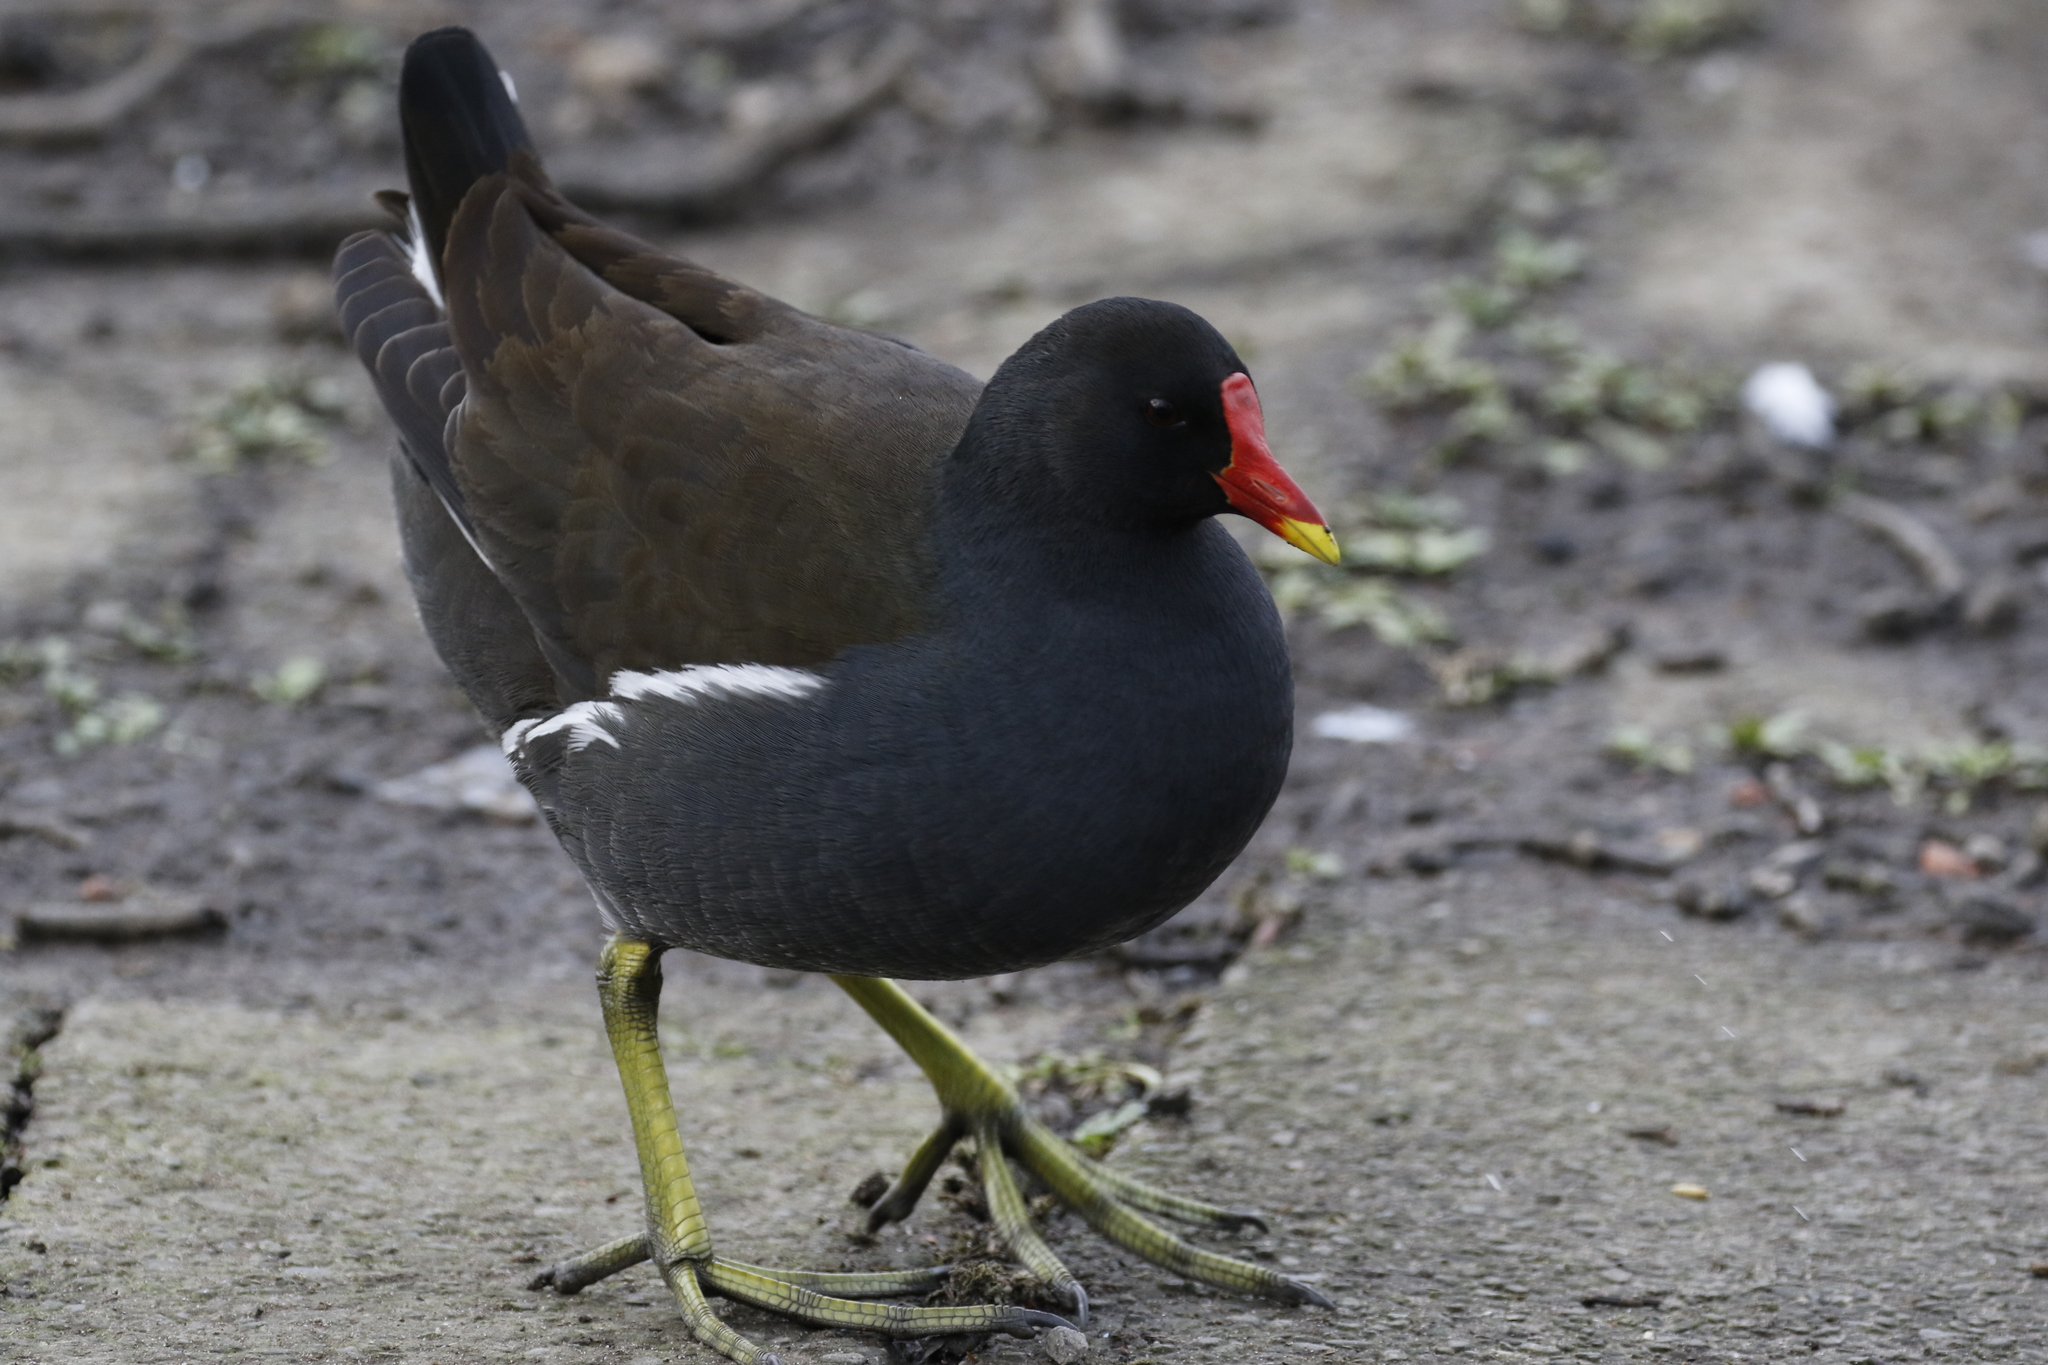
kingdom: Animalia
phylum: Chordata
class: Aves
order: Gruiformes
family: Rallidae
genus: Gallinula
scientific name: Gallinula chloropus
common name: Common moorhen
